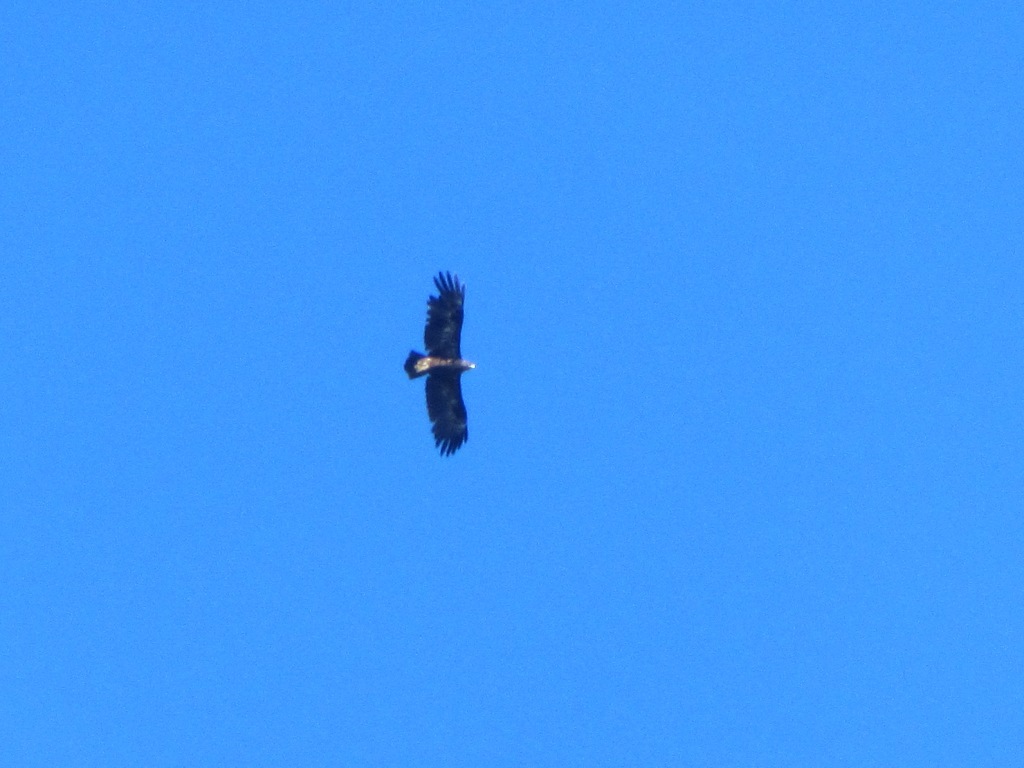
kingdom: Animalia
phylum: Chordata
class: Aves
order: Accipitriformes
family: Accipitridae
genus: Aquila
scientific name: Aquila clanga
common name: Greater spotted eagle
